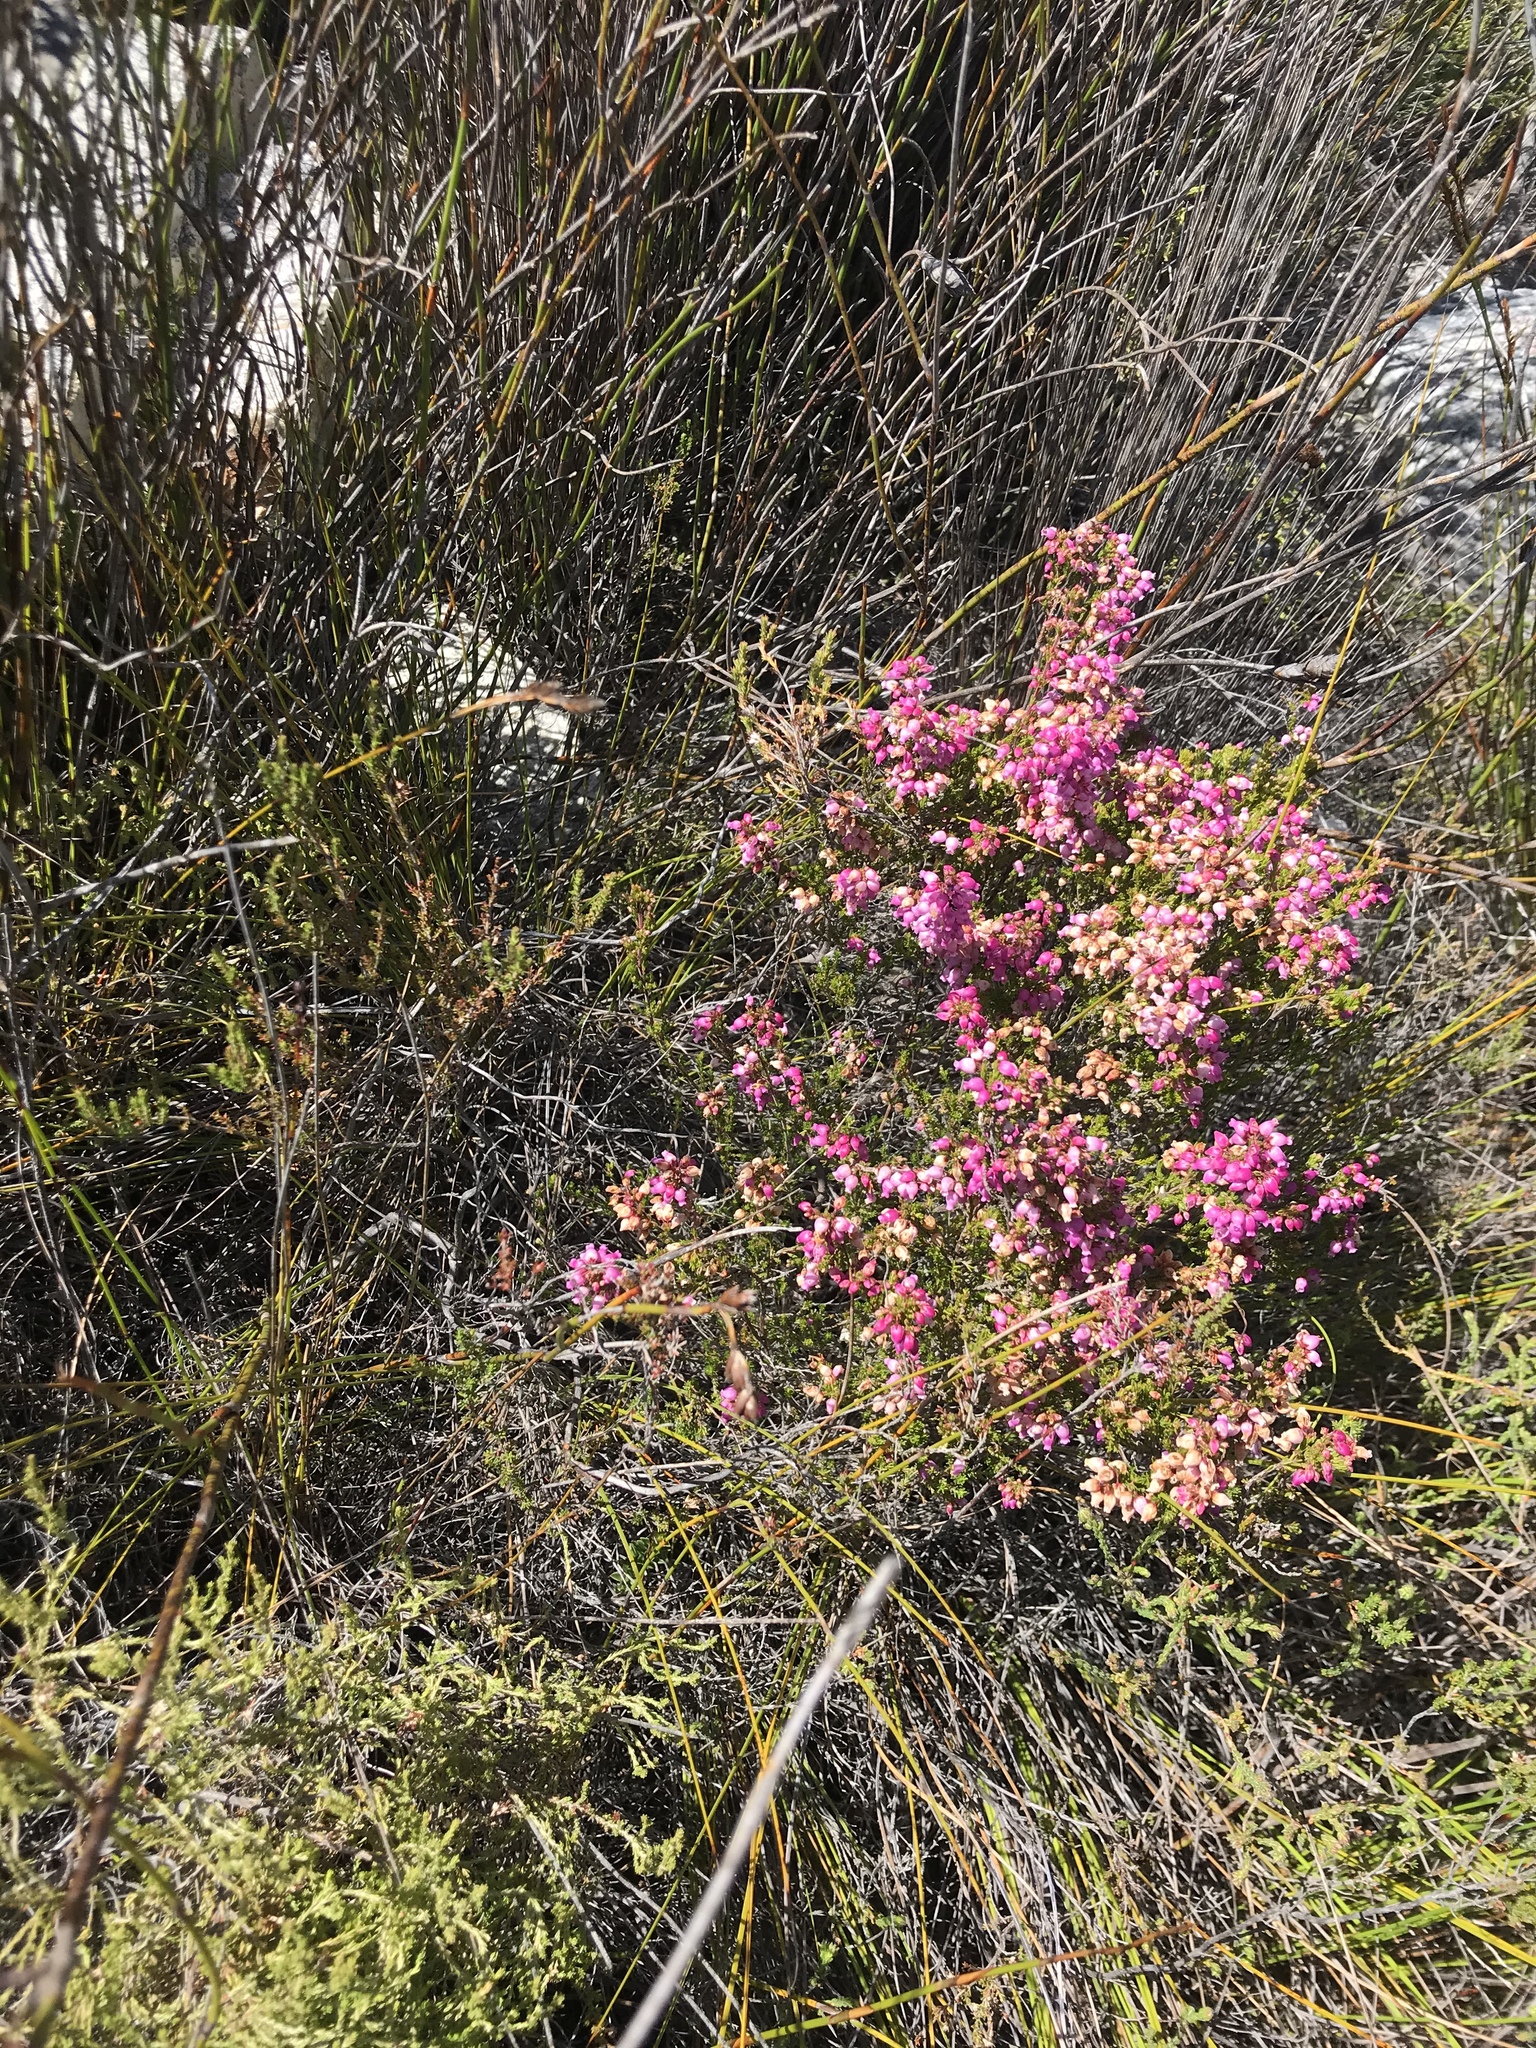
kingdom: Plantae
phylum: Tracheophyta
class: Magnoliopsida
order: Ericales
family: Ericaceae
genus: Erica
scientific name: Erica tenella
